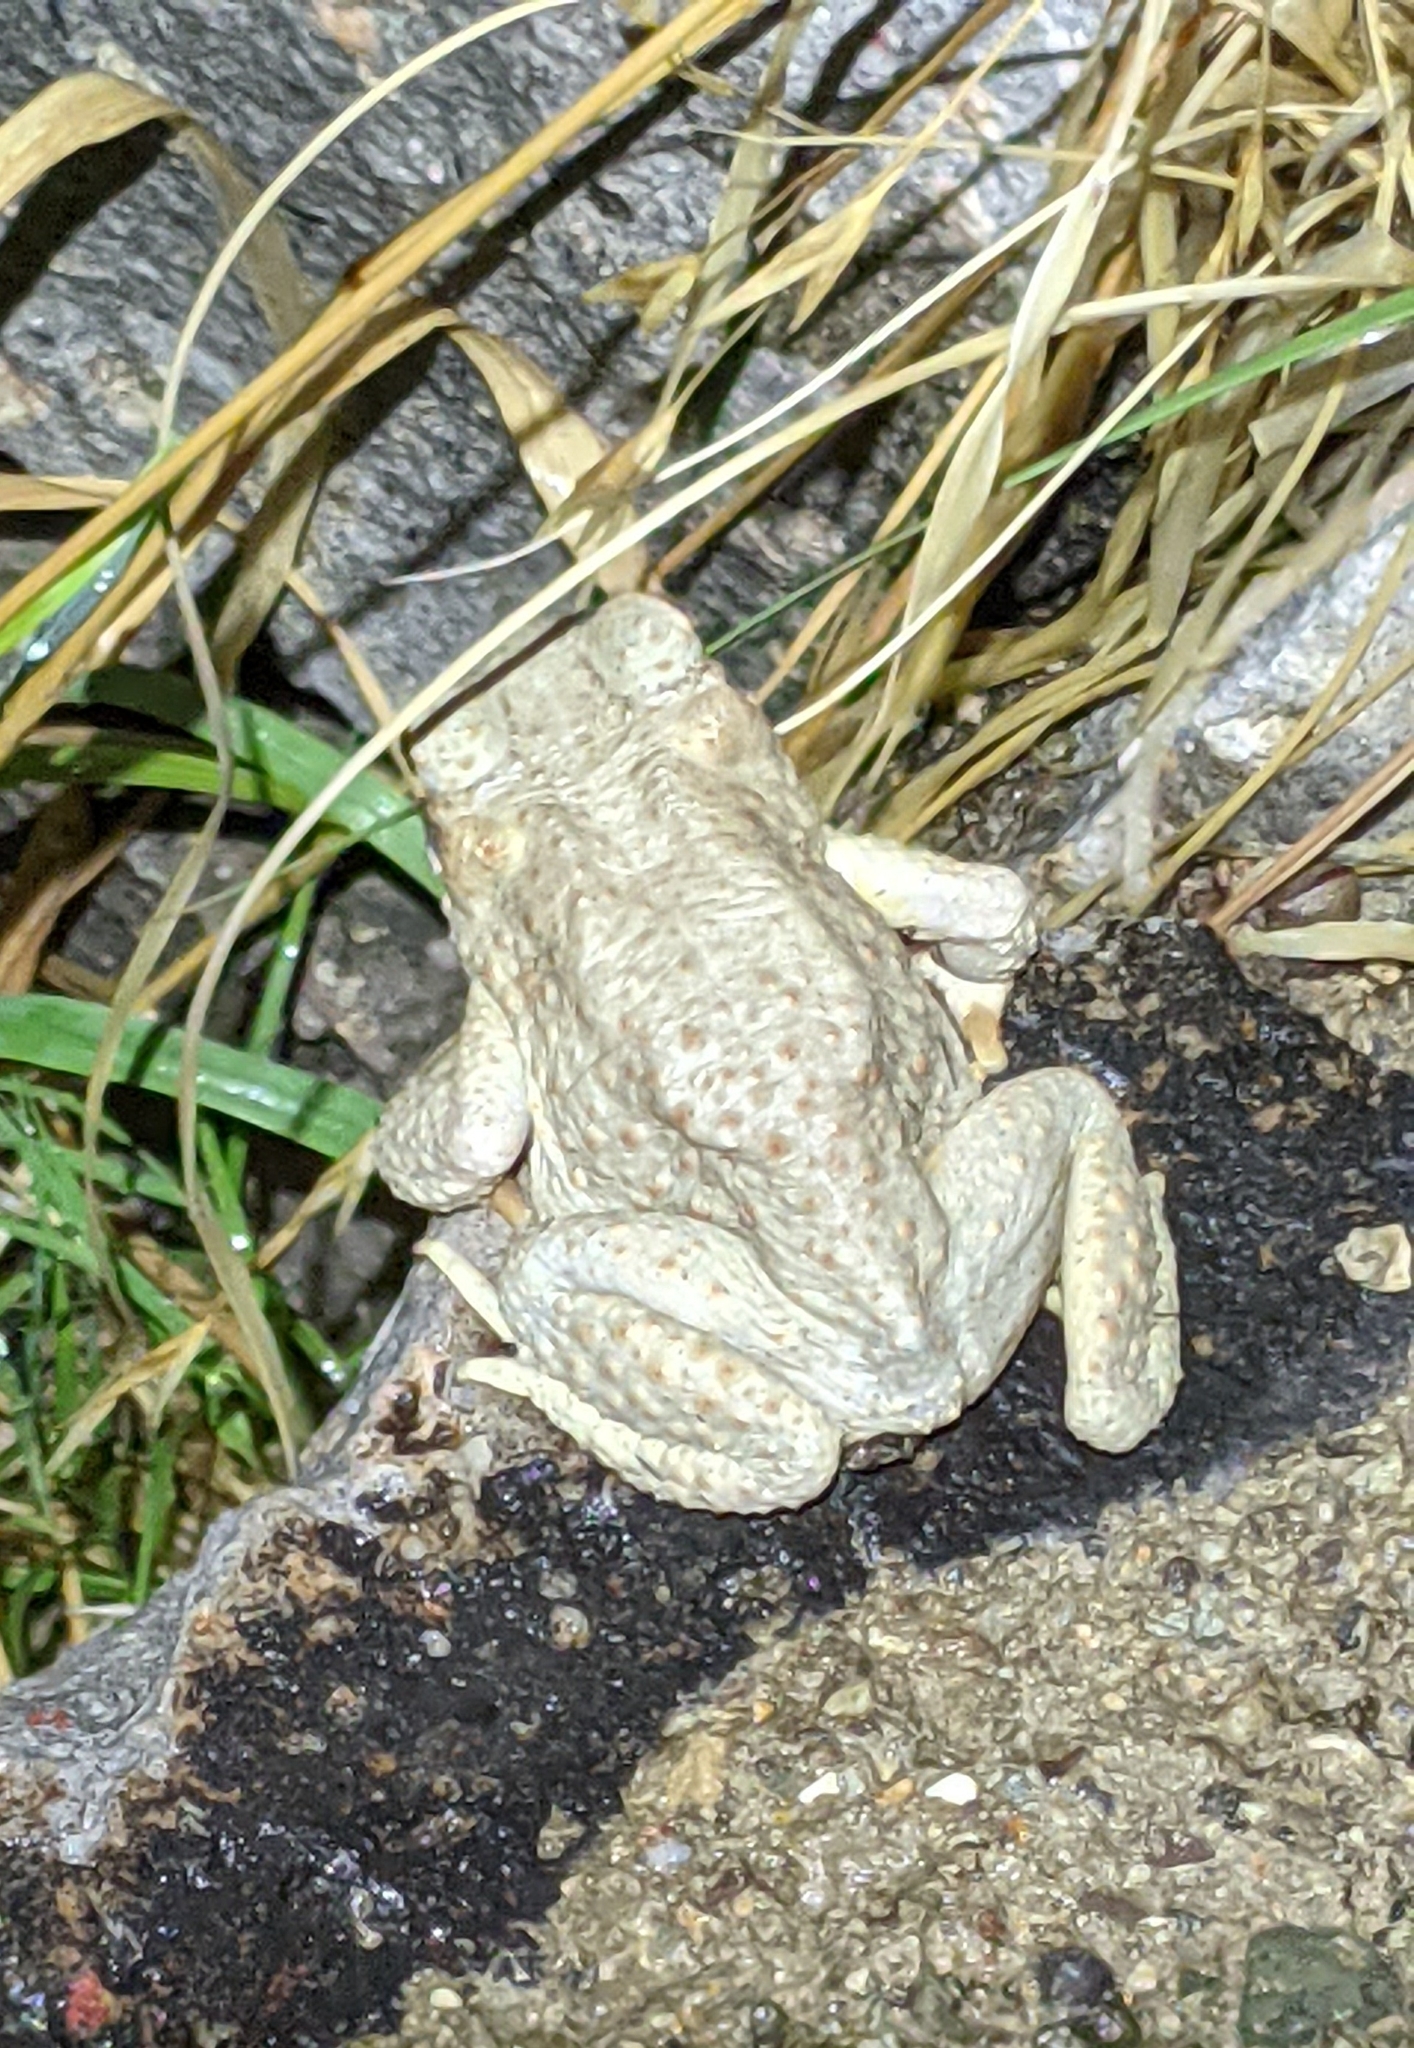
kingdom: Animalia
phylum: Chordata
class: Amphibia
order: Anura
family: Bufonidae
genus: Anaxyrus
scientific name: Anaxyrus punctatus
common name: Red-spotted toad
